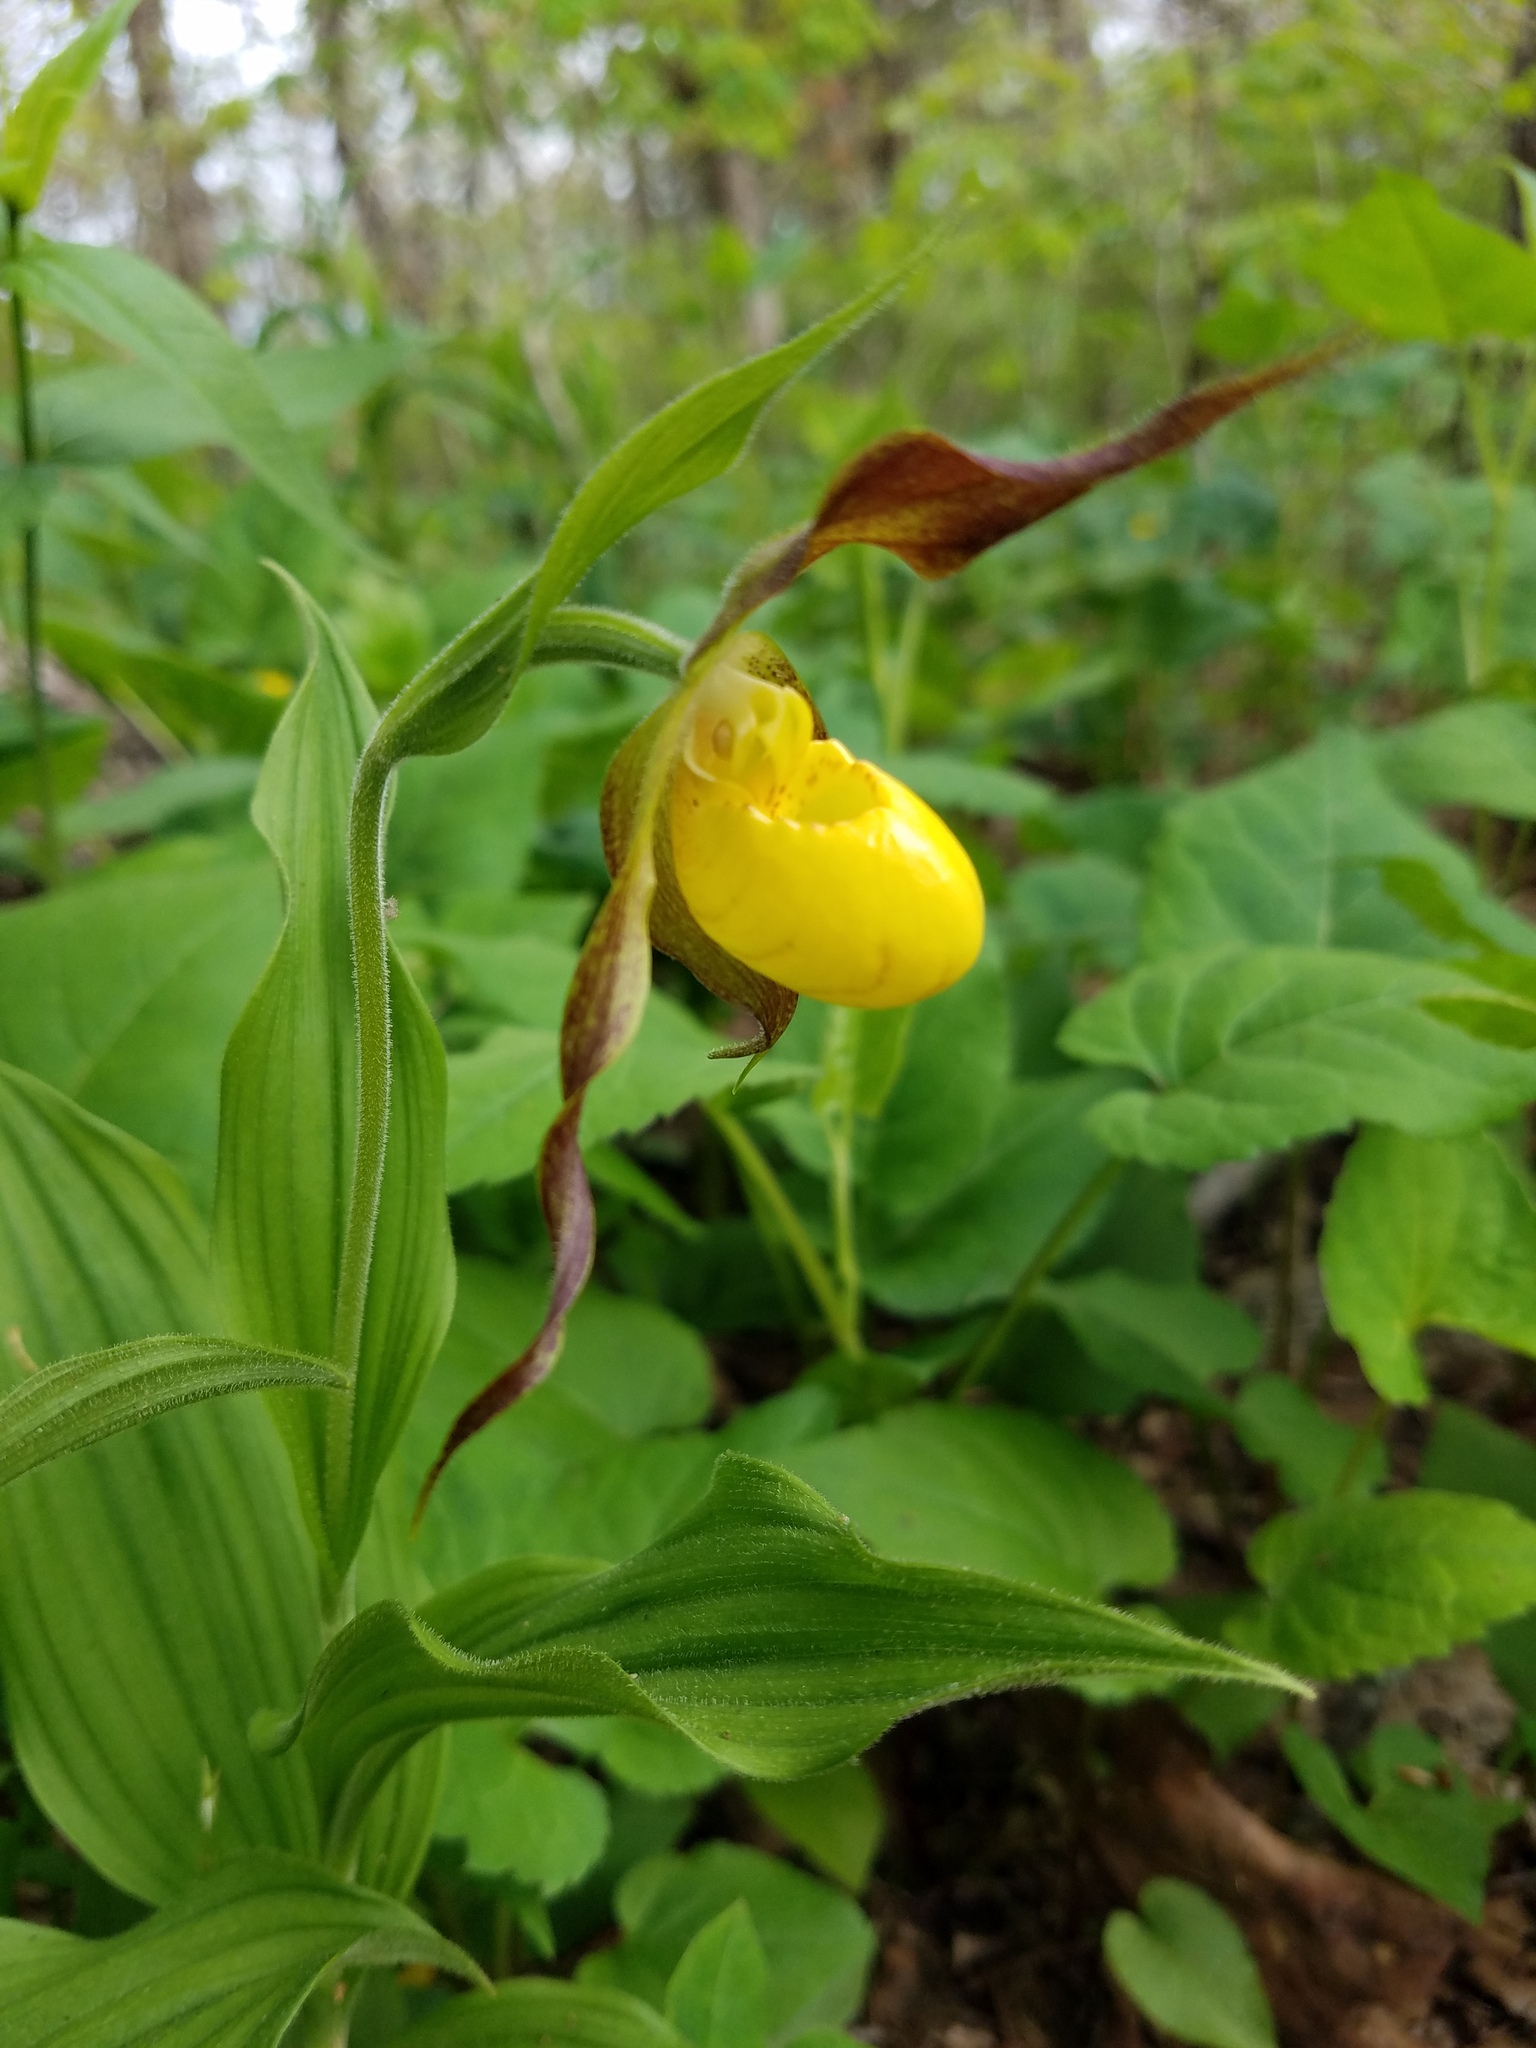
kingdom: Plantae
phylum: Tracheophyta
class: Liliopsida
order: Asparagales
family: Orchidaceae
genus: Cypripedium
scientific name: Cypripedium parviflorum
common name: American yellow lady's-slipper
